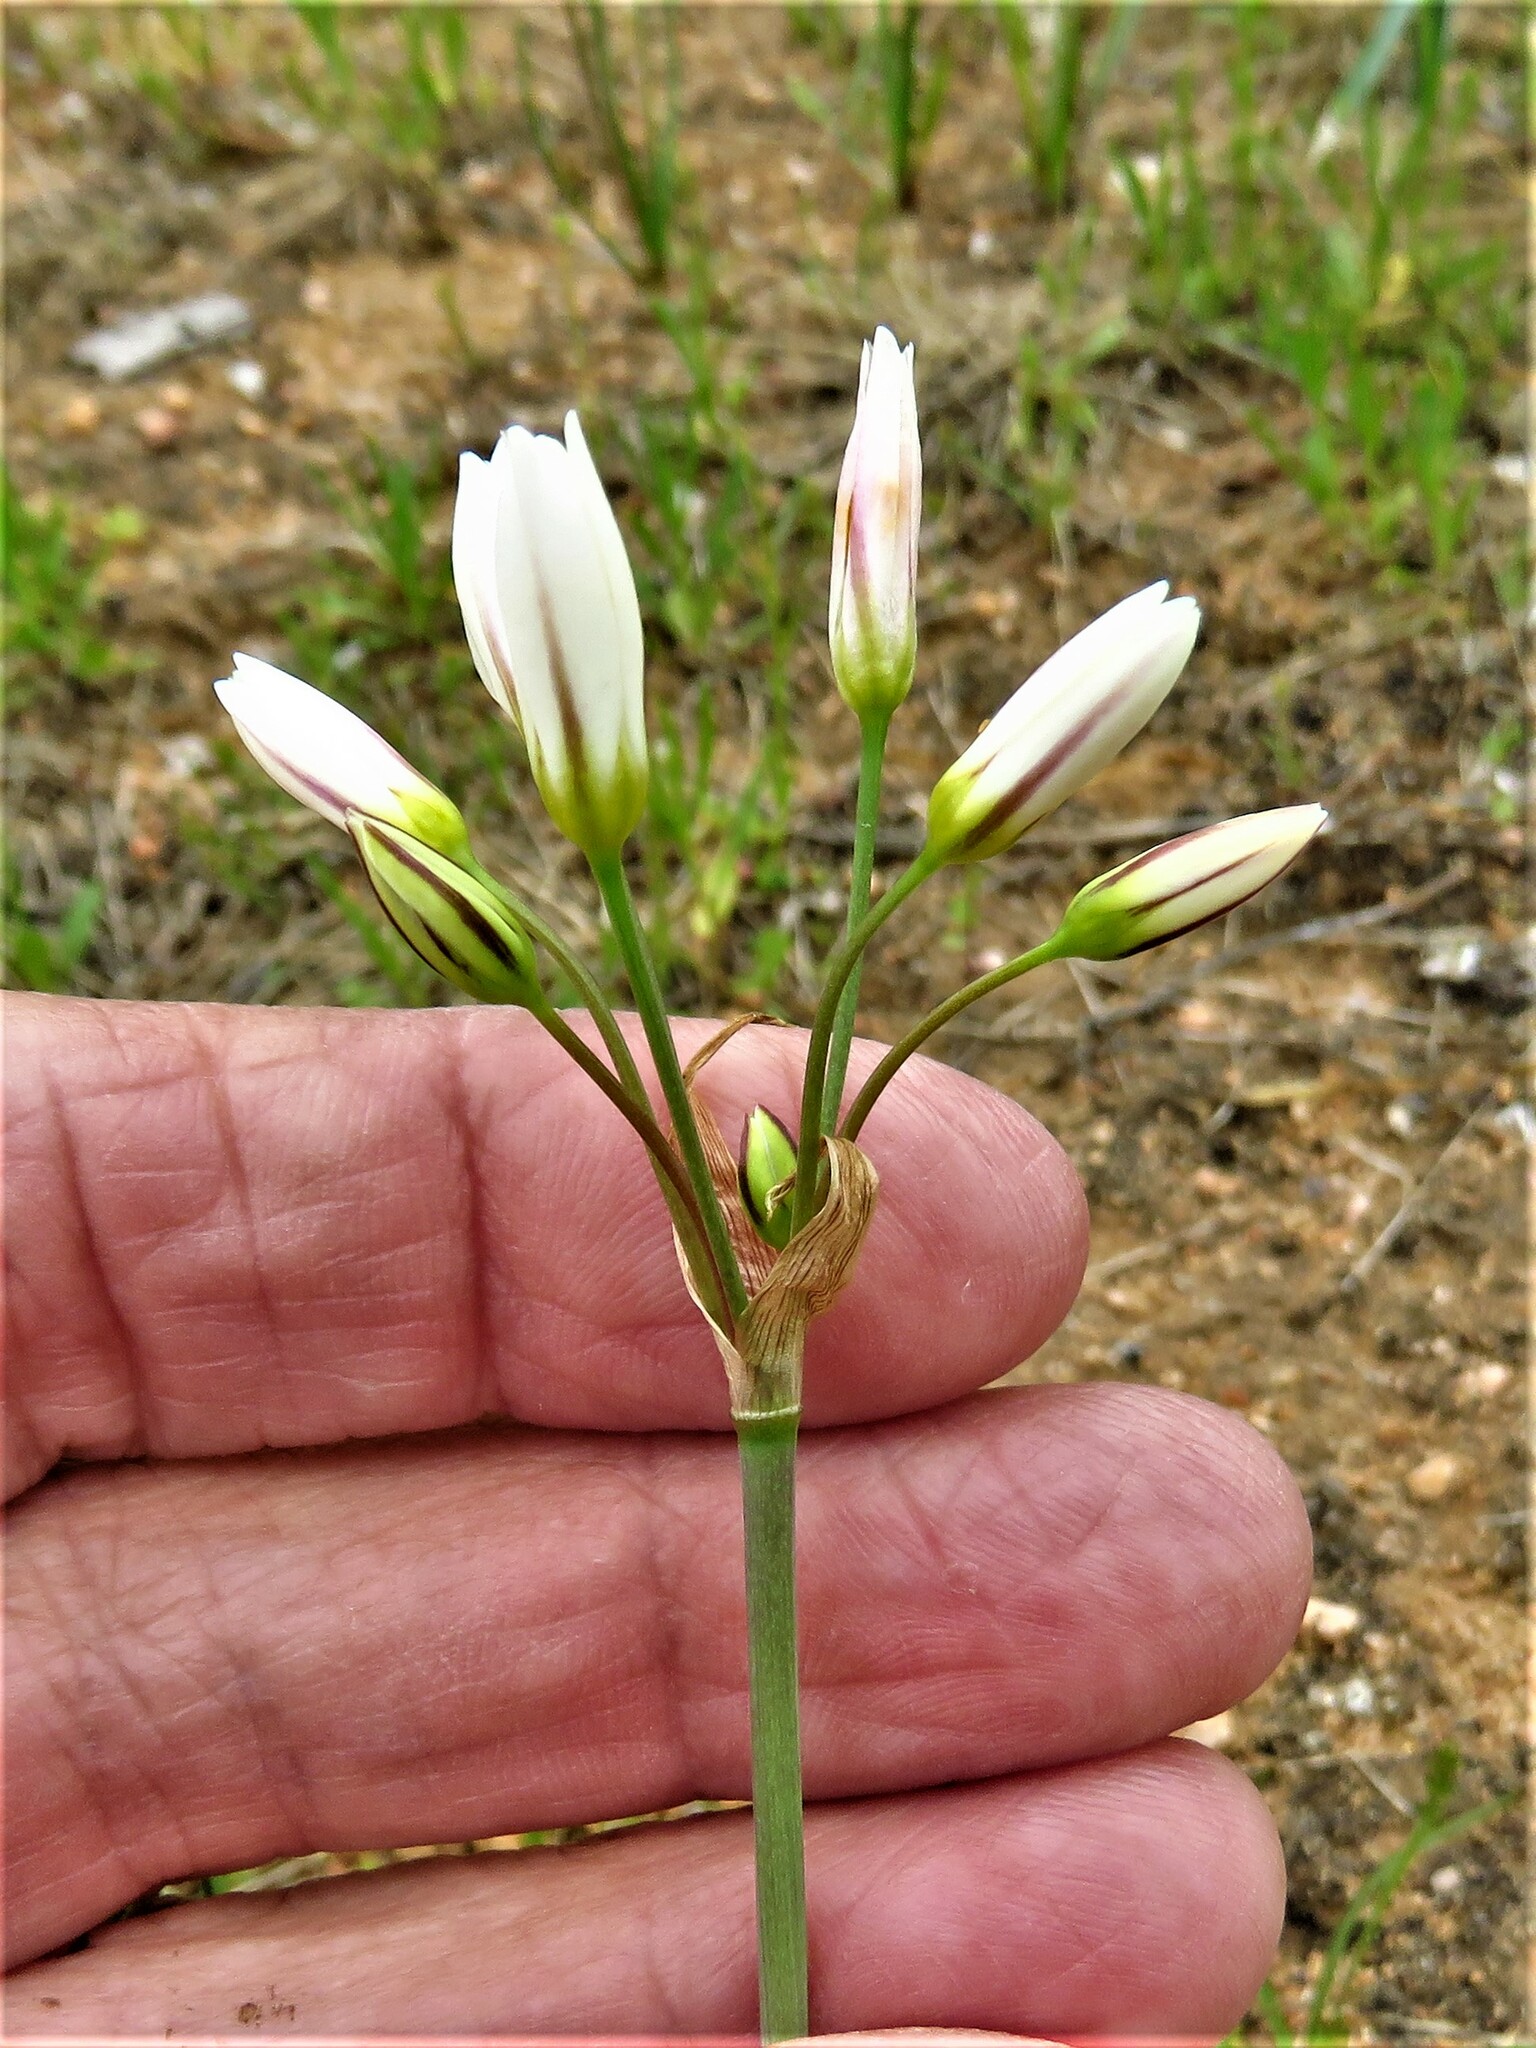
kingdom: Plantae
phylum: Tracheophyta
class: Liliopsida
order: Asparagales
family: Amaryllidaceae
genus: Nothoscordum
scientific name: Nothoscordum bivalve
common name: Crow-poison
